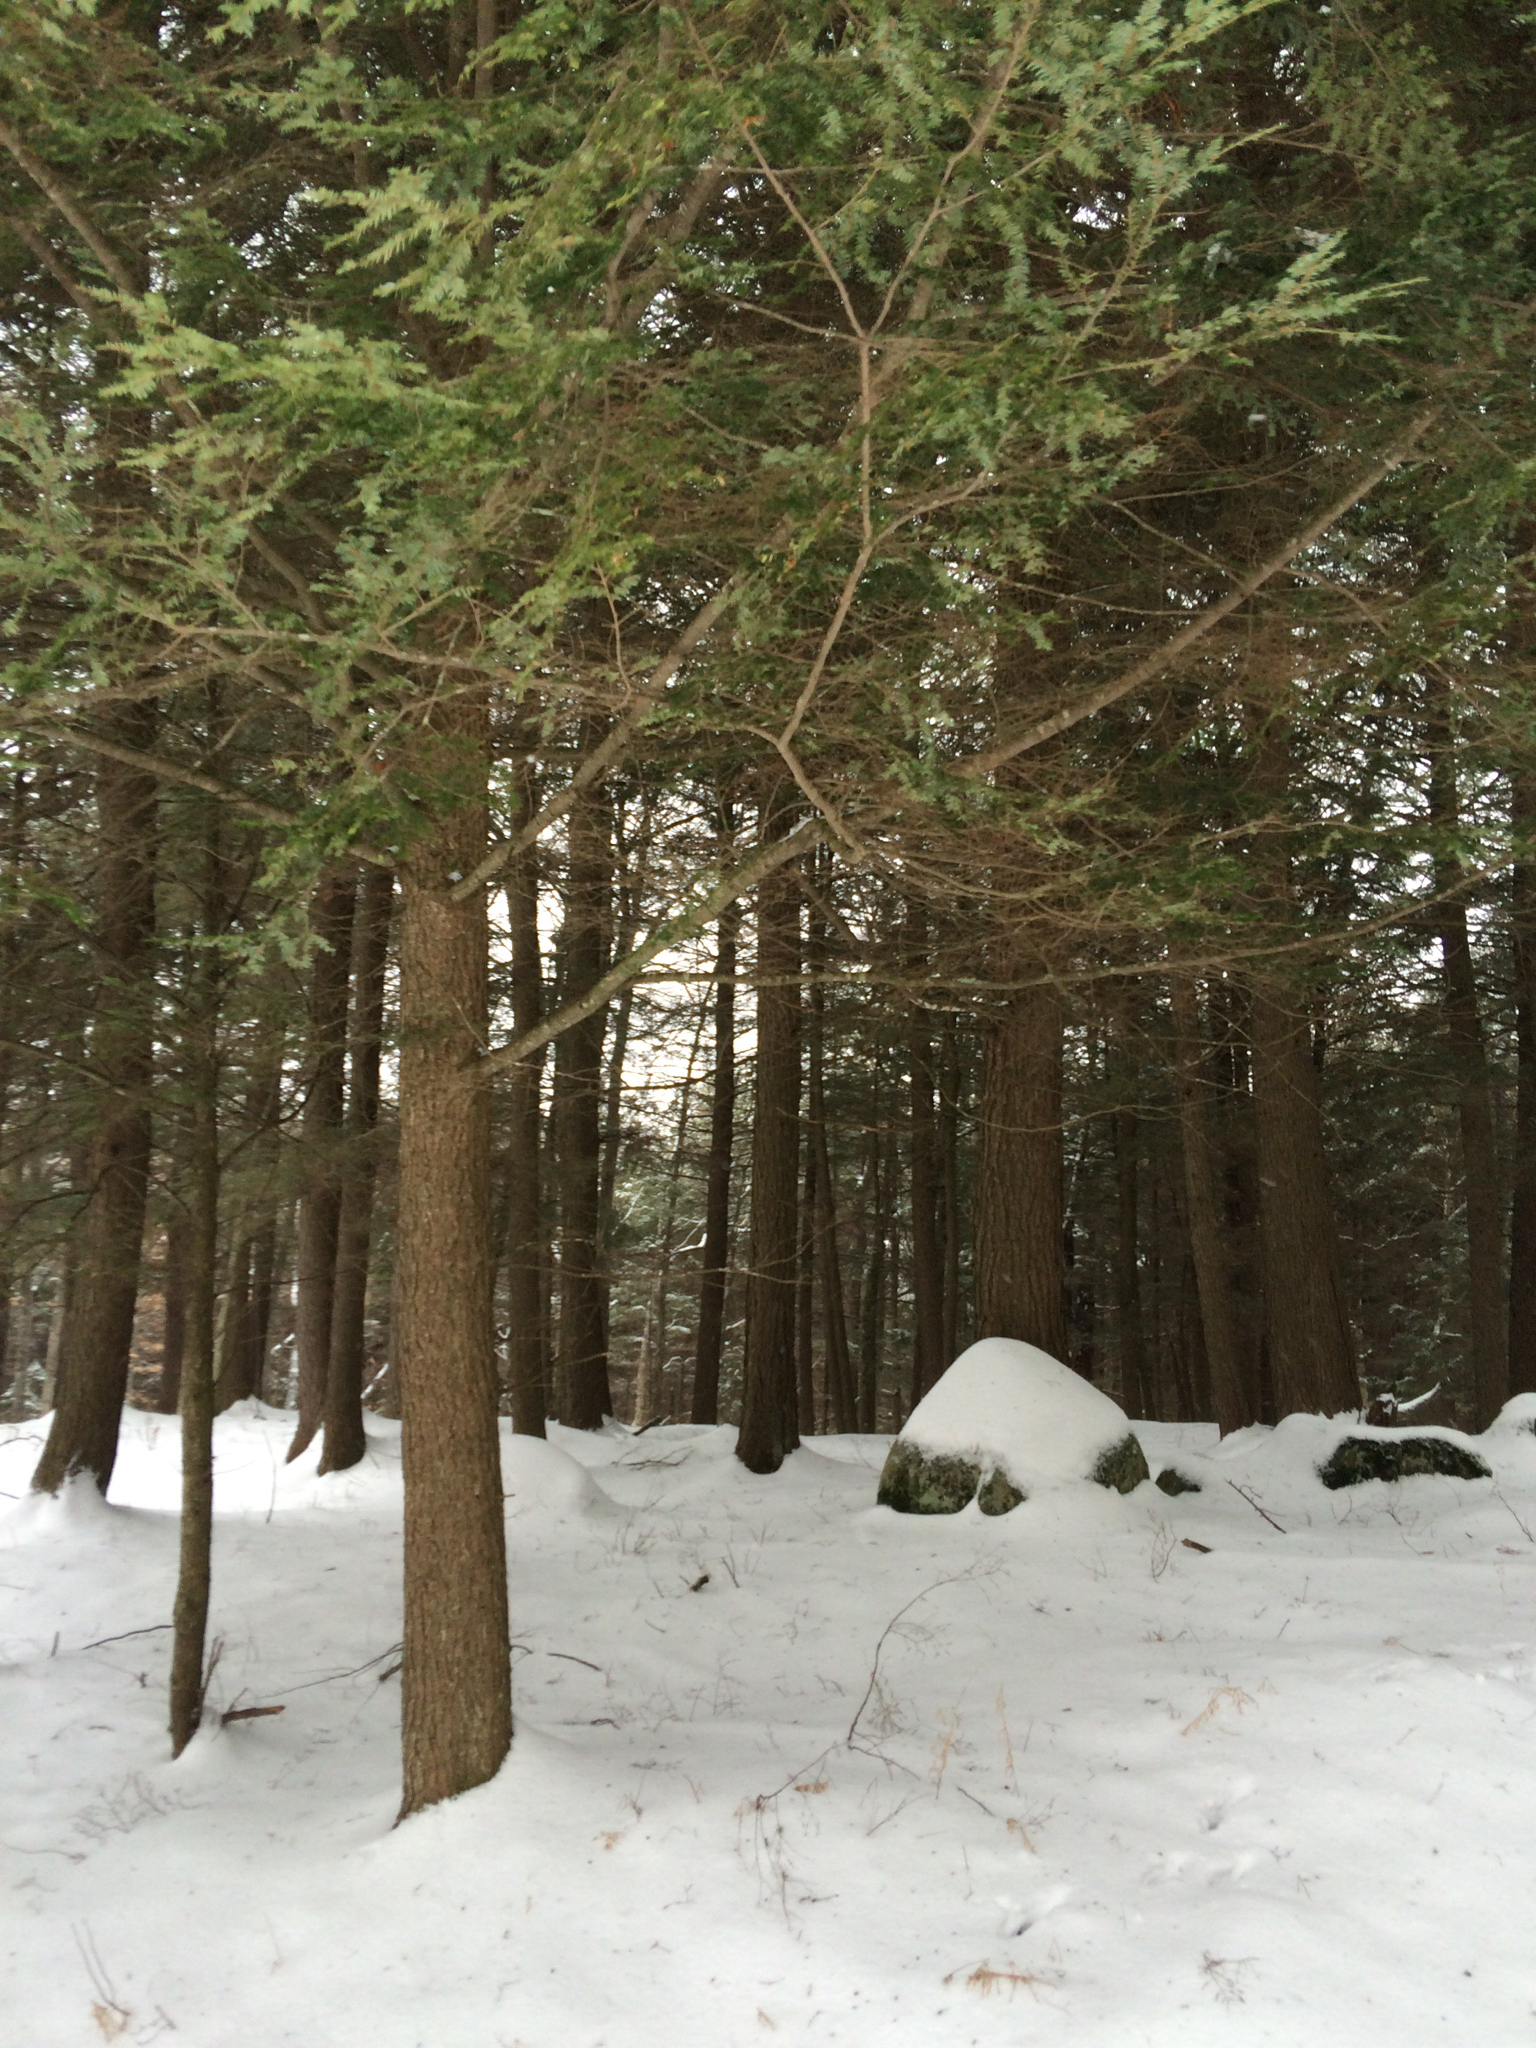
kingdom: Plantae
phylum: Tracheophyta
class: Pinopsida
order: Pinales
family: Pinaceae
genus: Tsuga
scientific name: Tsuga canadensis
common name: Eastern hemlock
